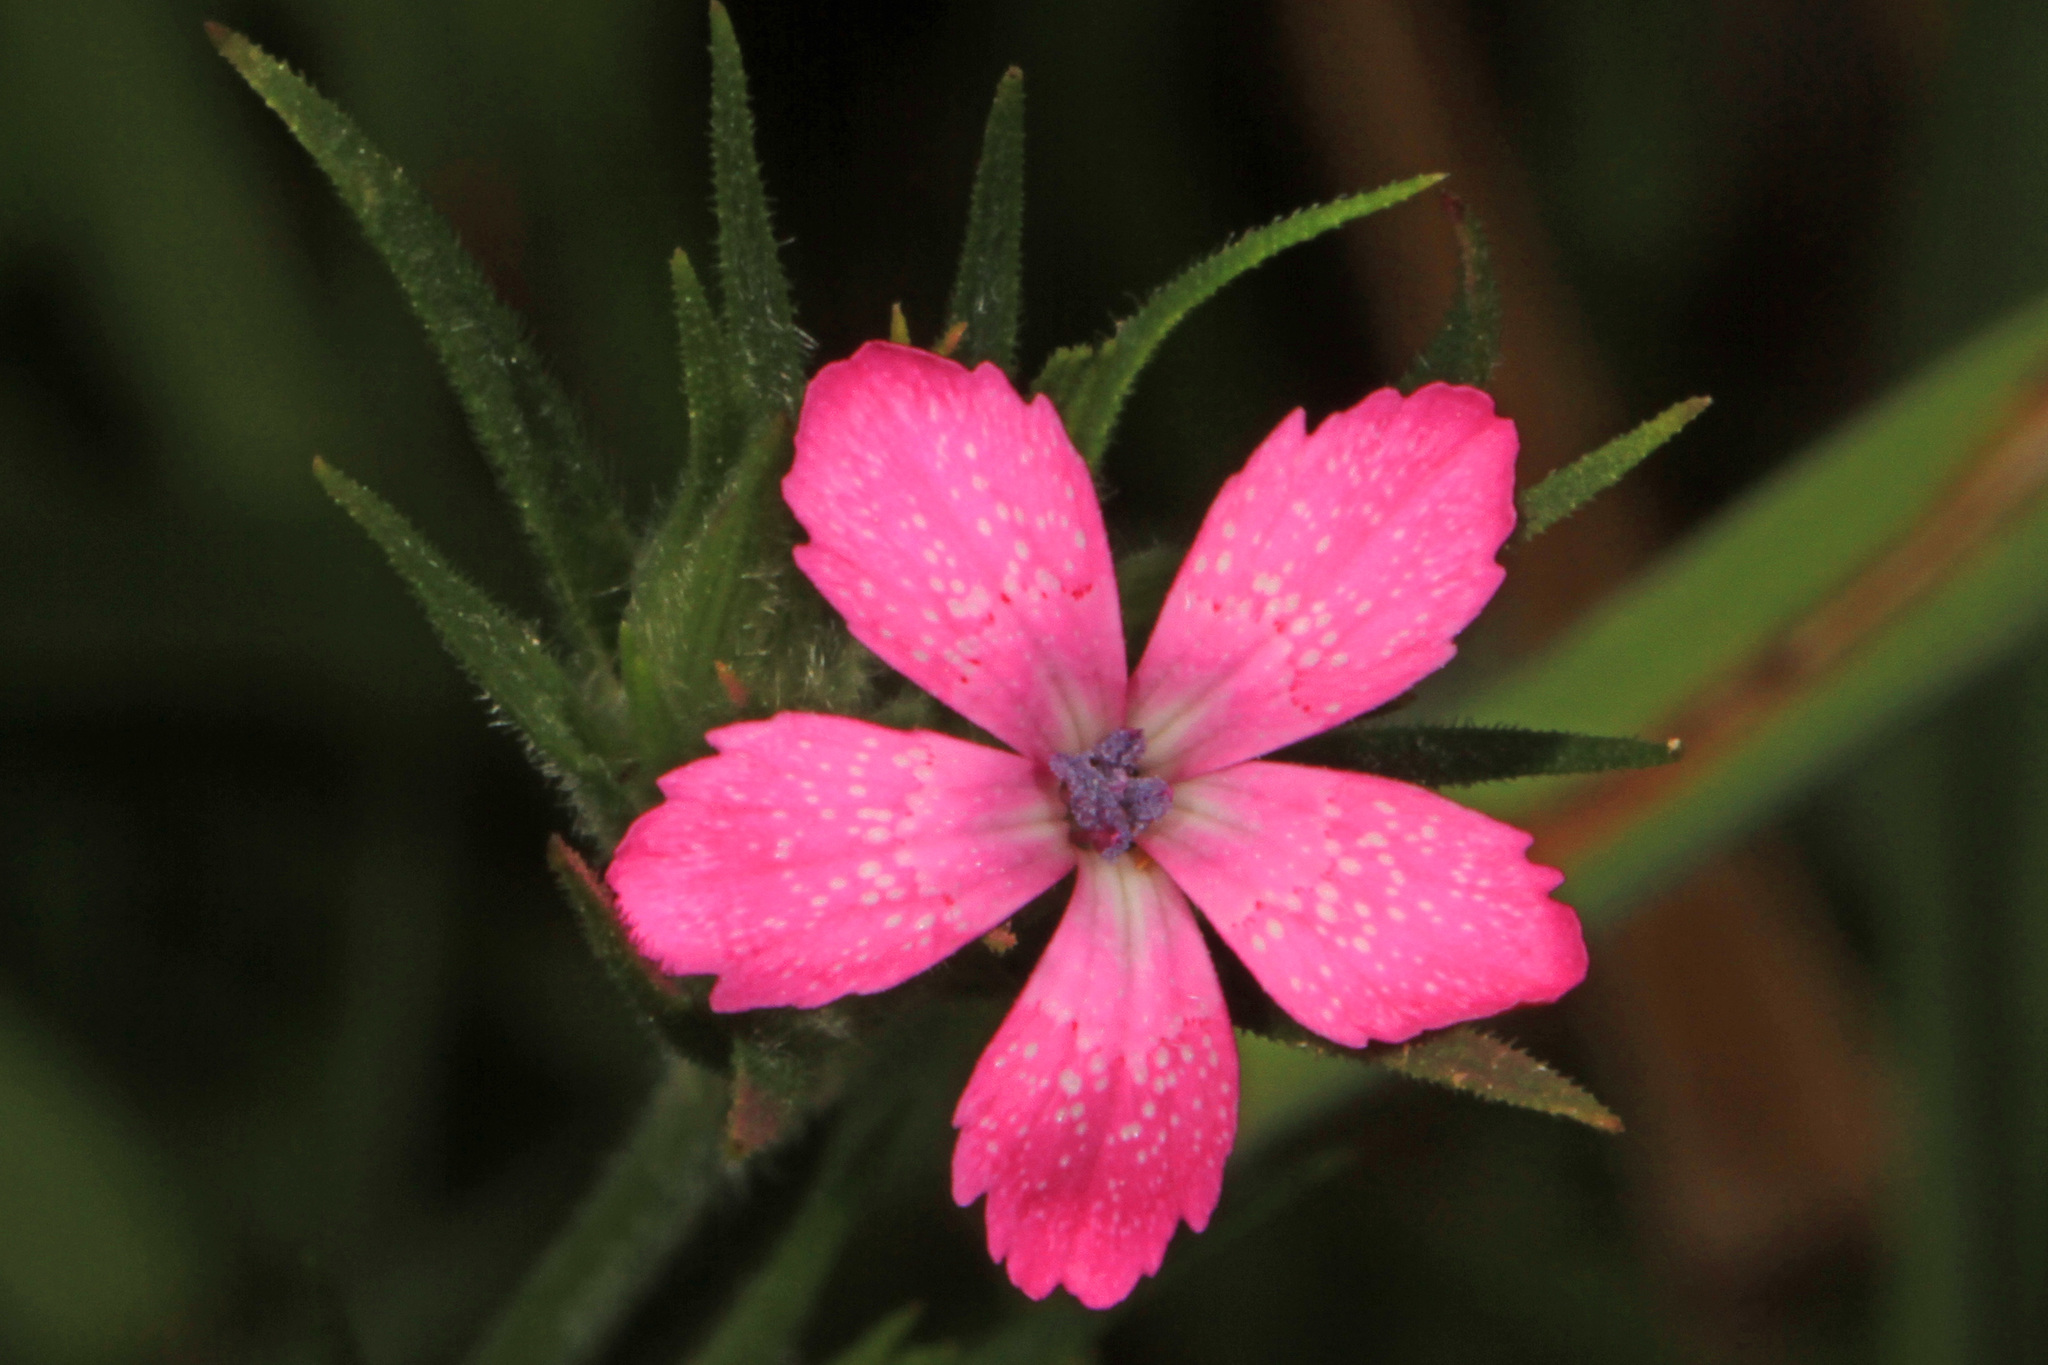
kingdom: Plantae
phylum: Tracheophyta
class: Magnoliopsida
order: Caryophyllales
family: Caryophyllaceae
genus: Dianthus
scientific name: Dianthus armeria
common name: Deptford pink
